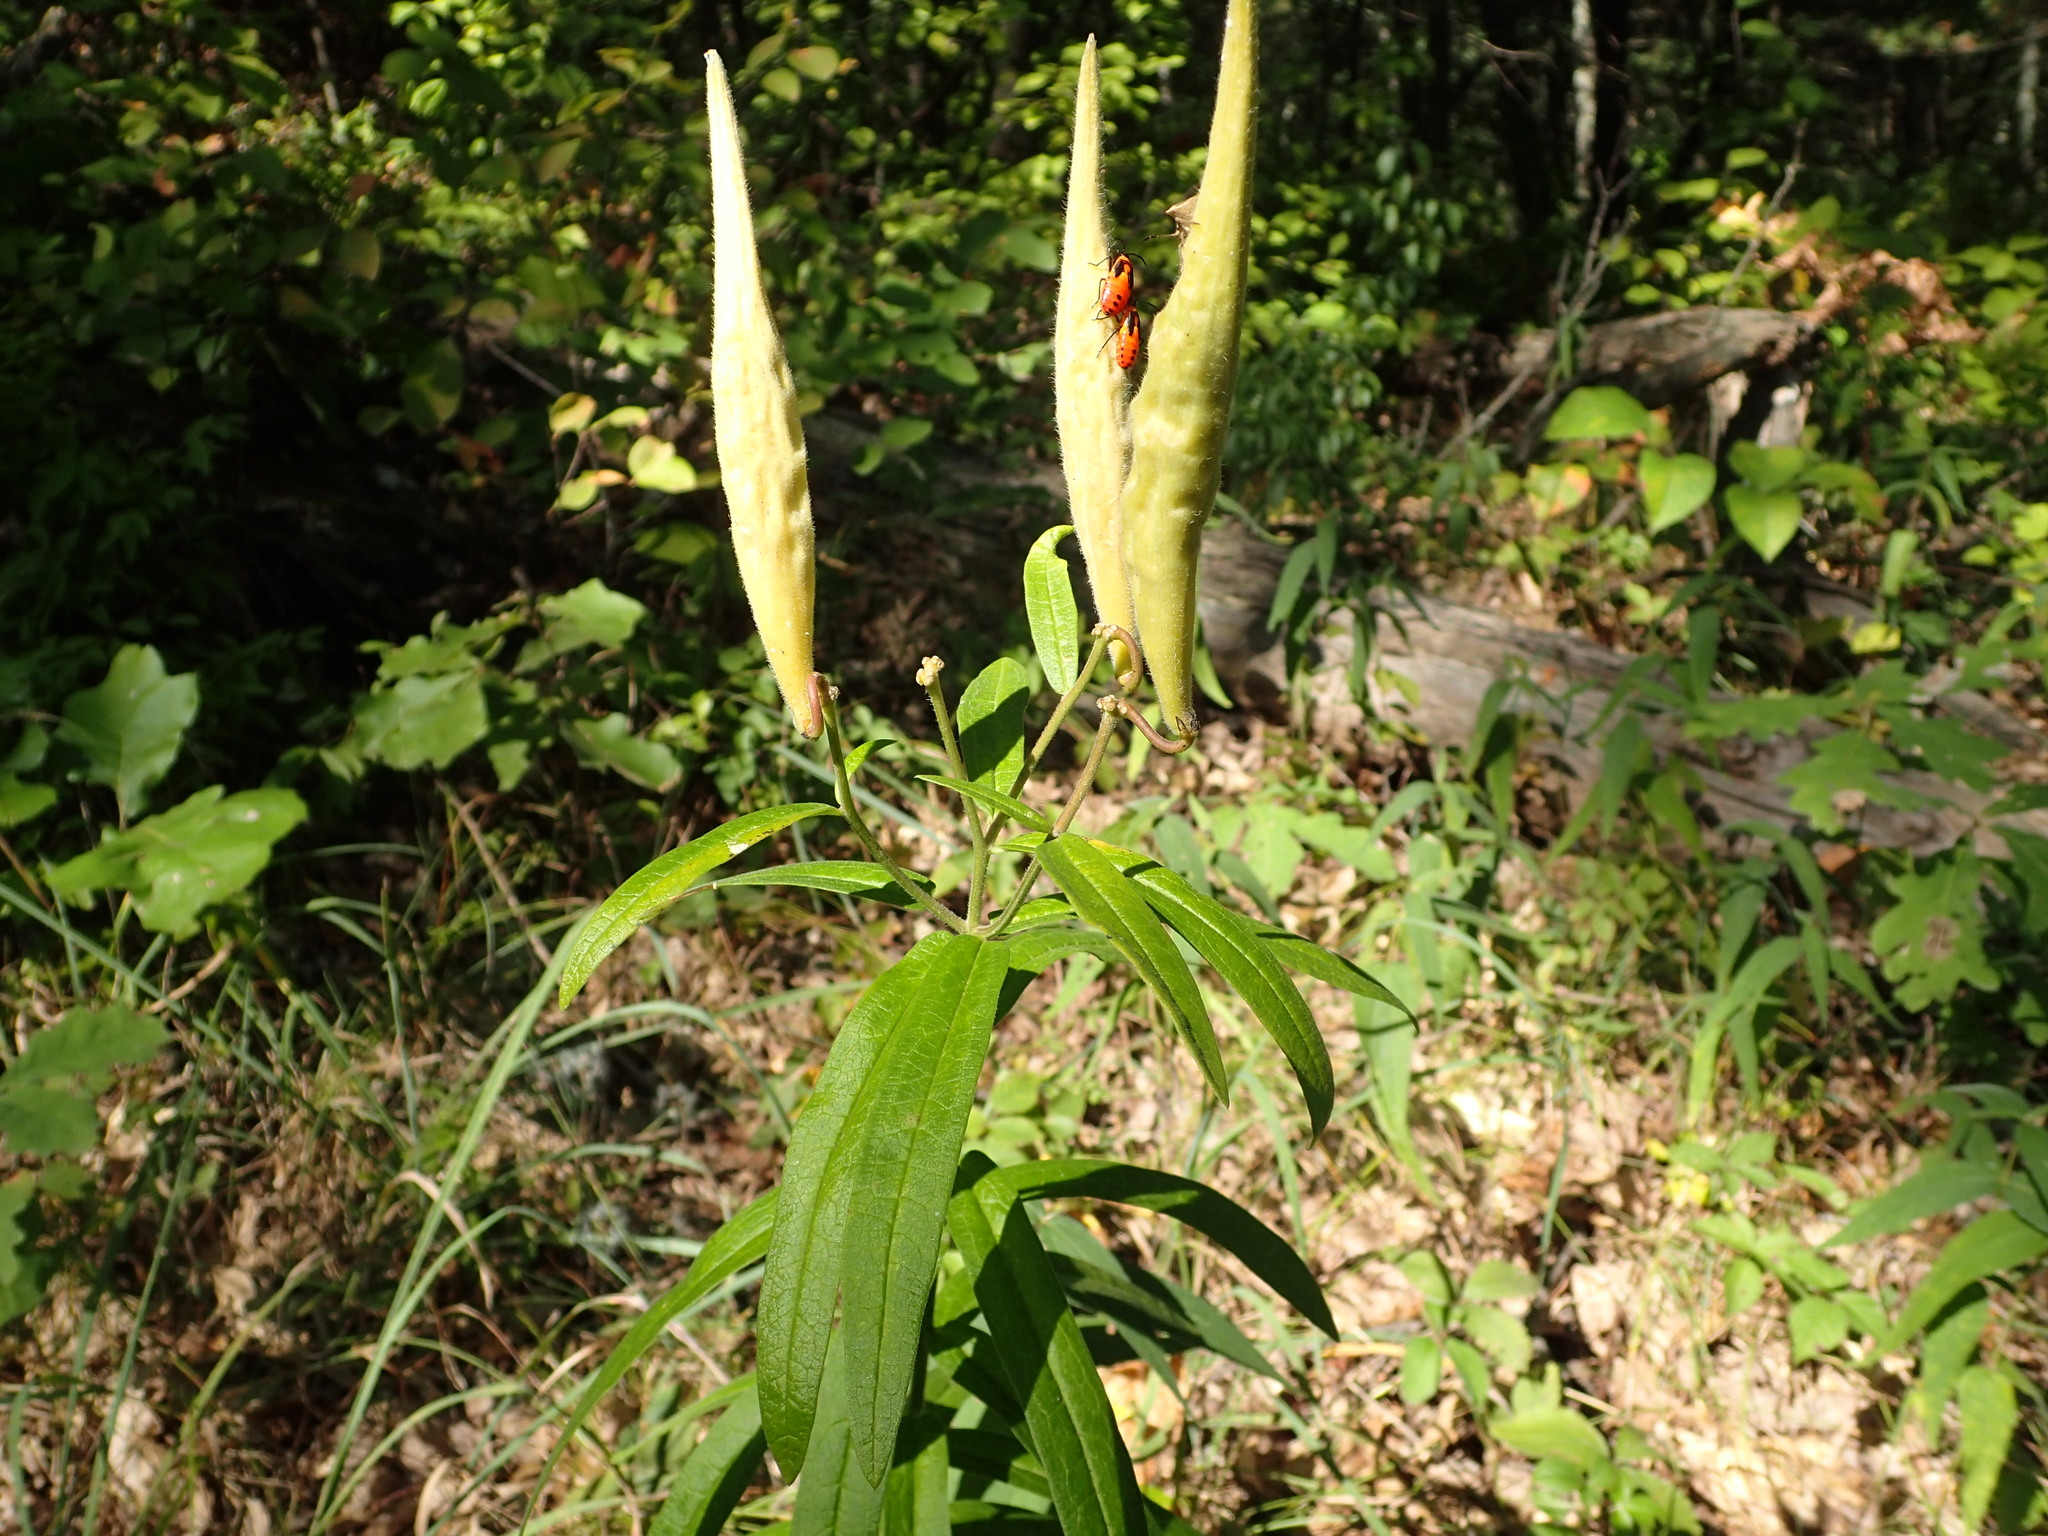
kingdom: Plantae
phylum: Tracheophyta
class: Magnoliopsida
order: Gentianales
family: Apocynaceae
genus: Asclepias
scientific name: Asclepias tuberosa
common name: Butterfly milkweed
